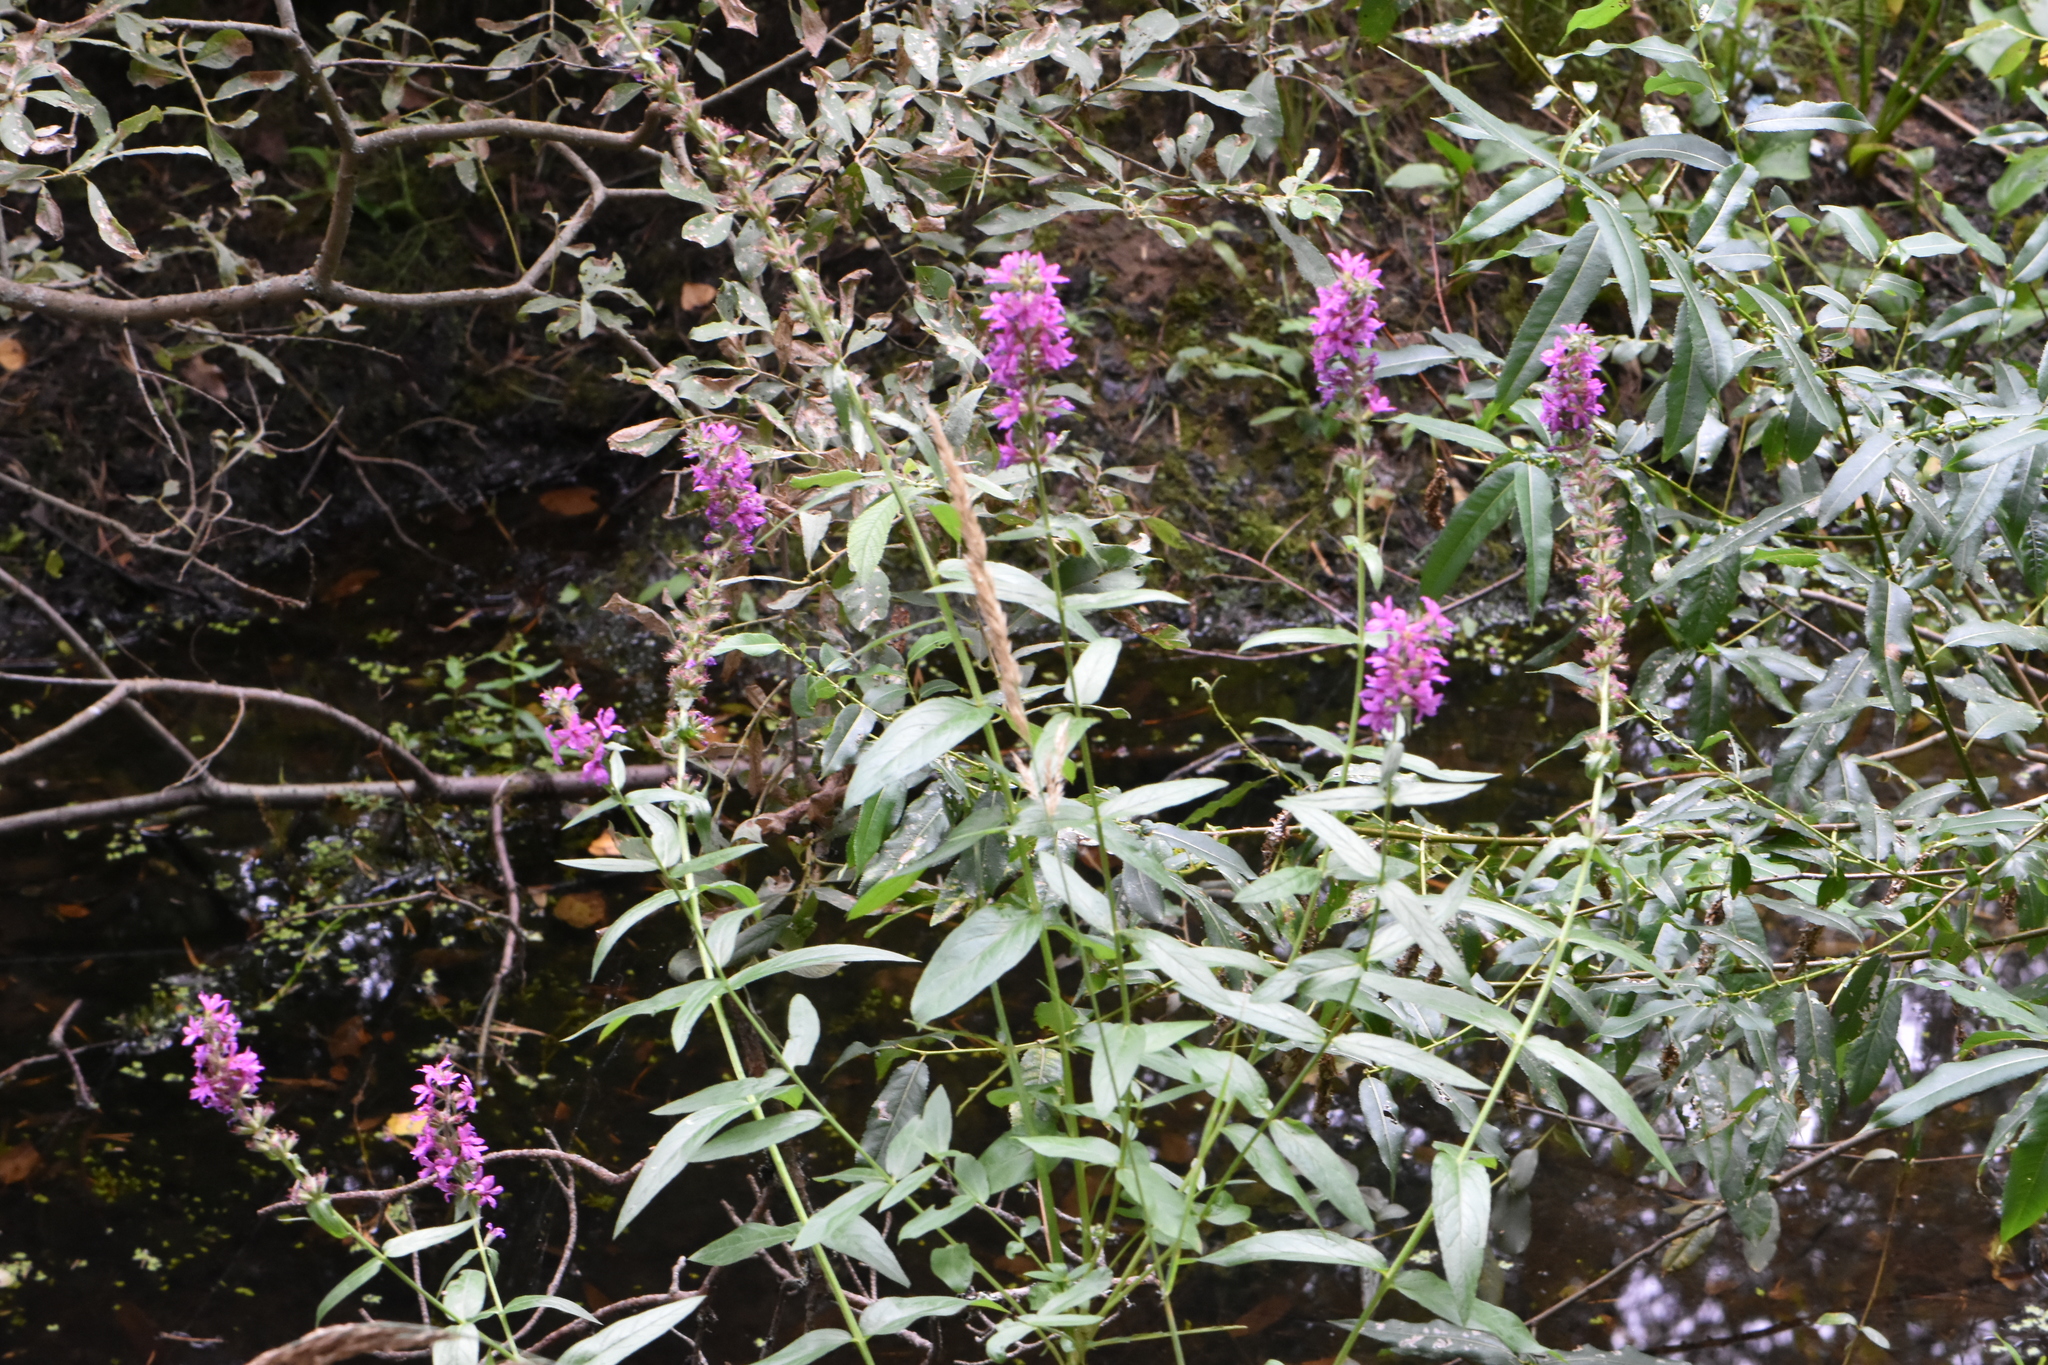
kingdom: Plantae
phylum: Tracheophyta
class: Magnoliopsida
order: Myrtales
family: Lythraceae
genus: Lythrum
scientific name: Lythrum salicaria
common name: Purple loosestrife
